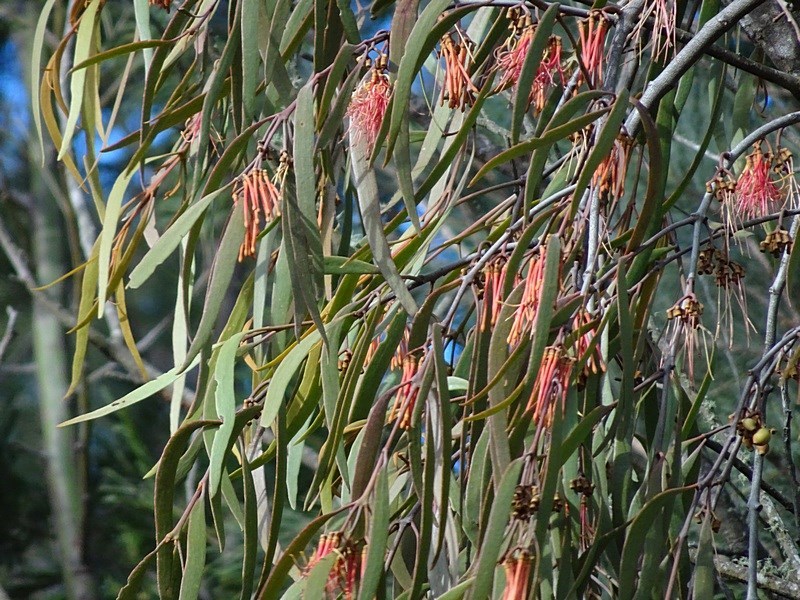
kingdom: Plantae
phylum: Tracheophyta
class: Magnoliopsida
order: Santalales
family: Loranthaceae
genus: Amyema
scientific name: Amyema pendula
